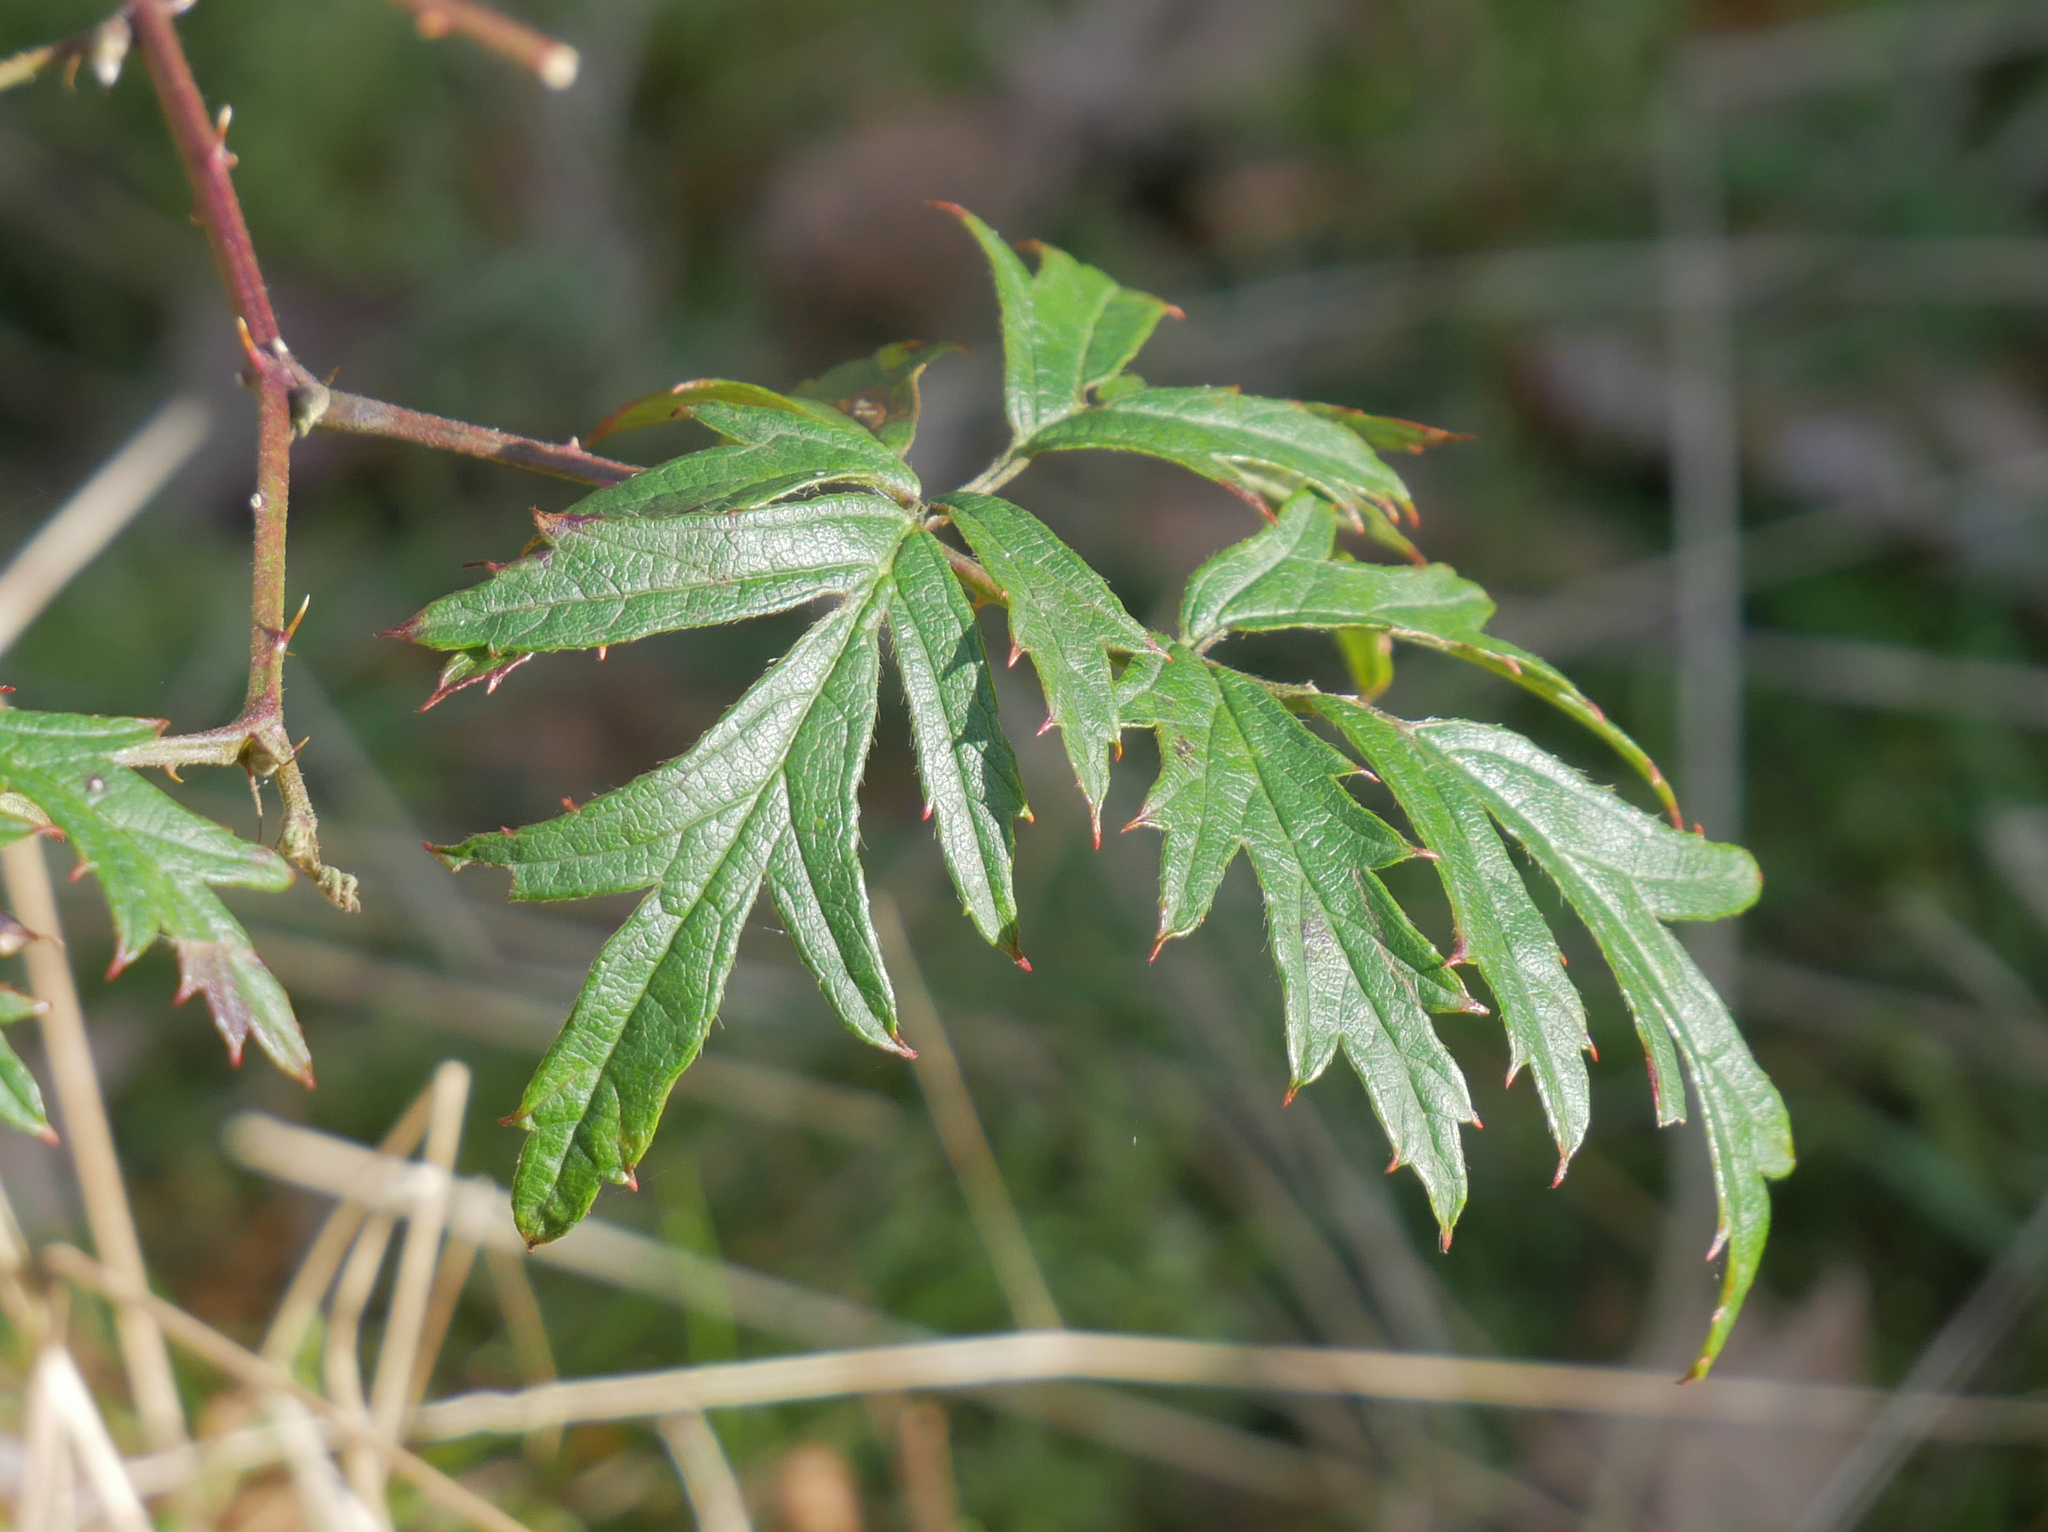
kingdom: Plantae
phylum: Tracheophyta
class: Magnoliopsida
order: Rosales
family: Rosaceae
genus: Rubus
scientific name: Rubus laciniatus
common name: Evergreen blackberry
